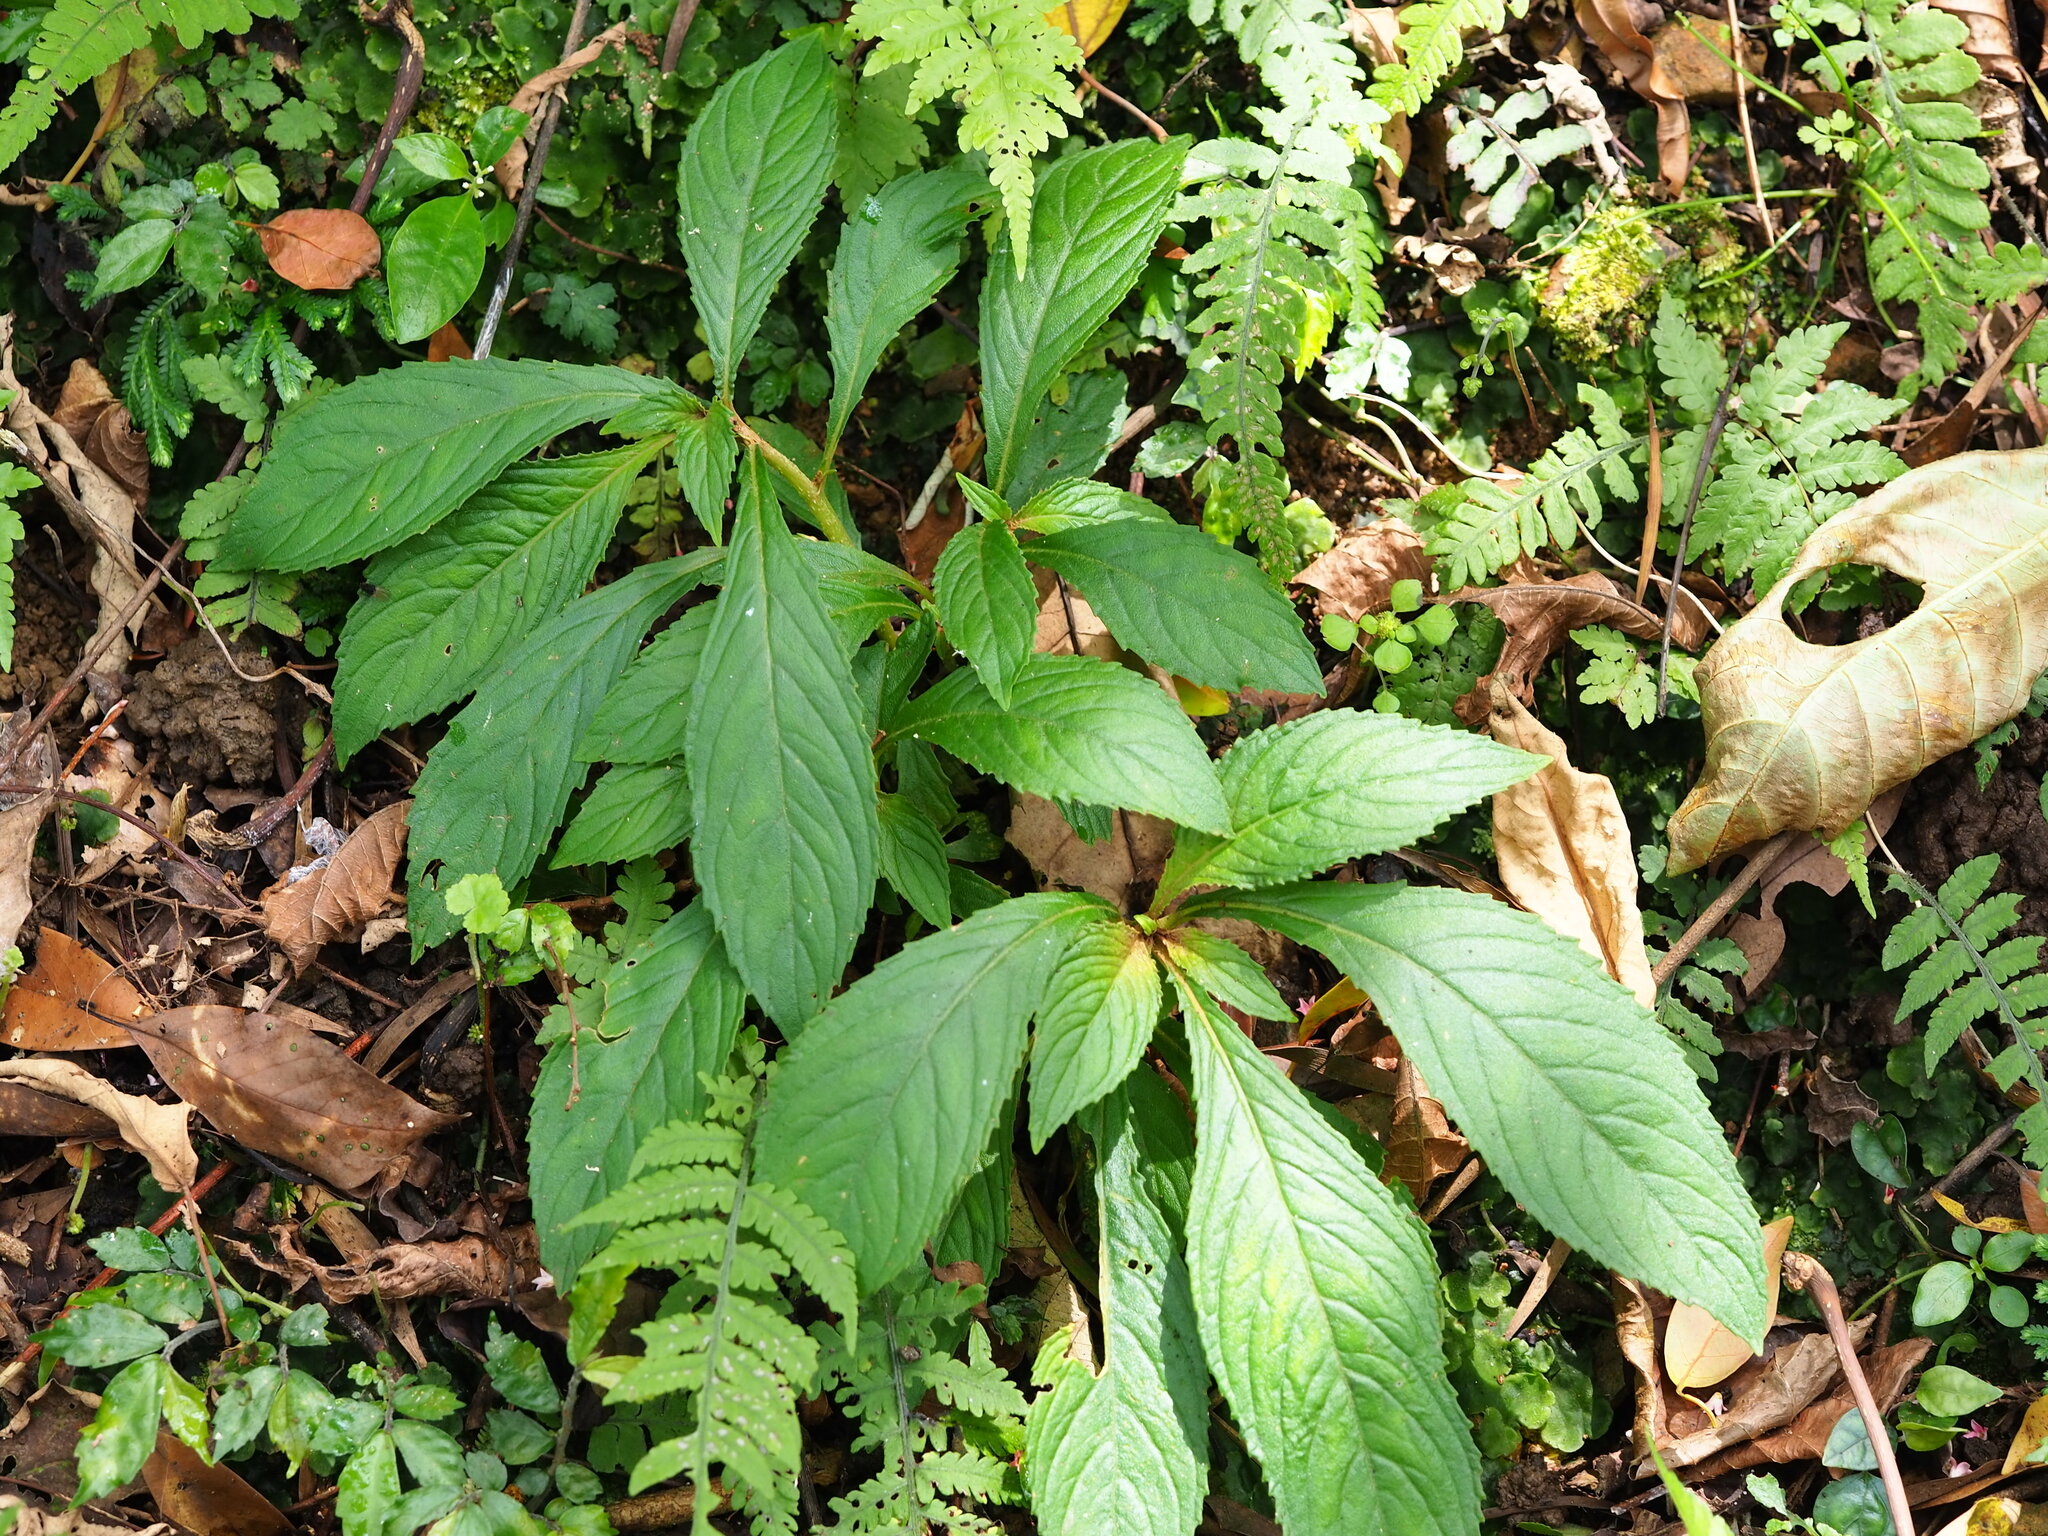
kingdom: Plantae
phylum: Tracheophyta
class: Magnoliopsida
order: Lamiales
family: Gesneriaceae
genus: Rhynchotechum
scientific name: Rhynchotechum discolor
